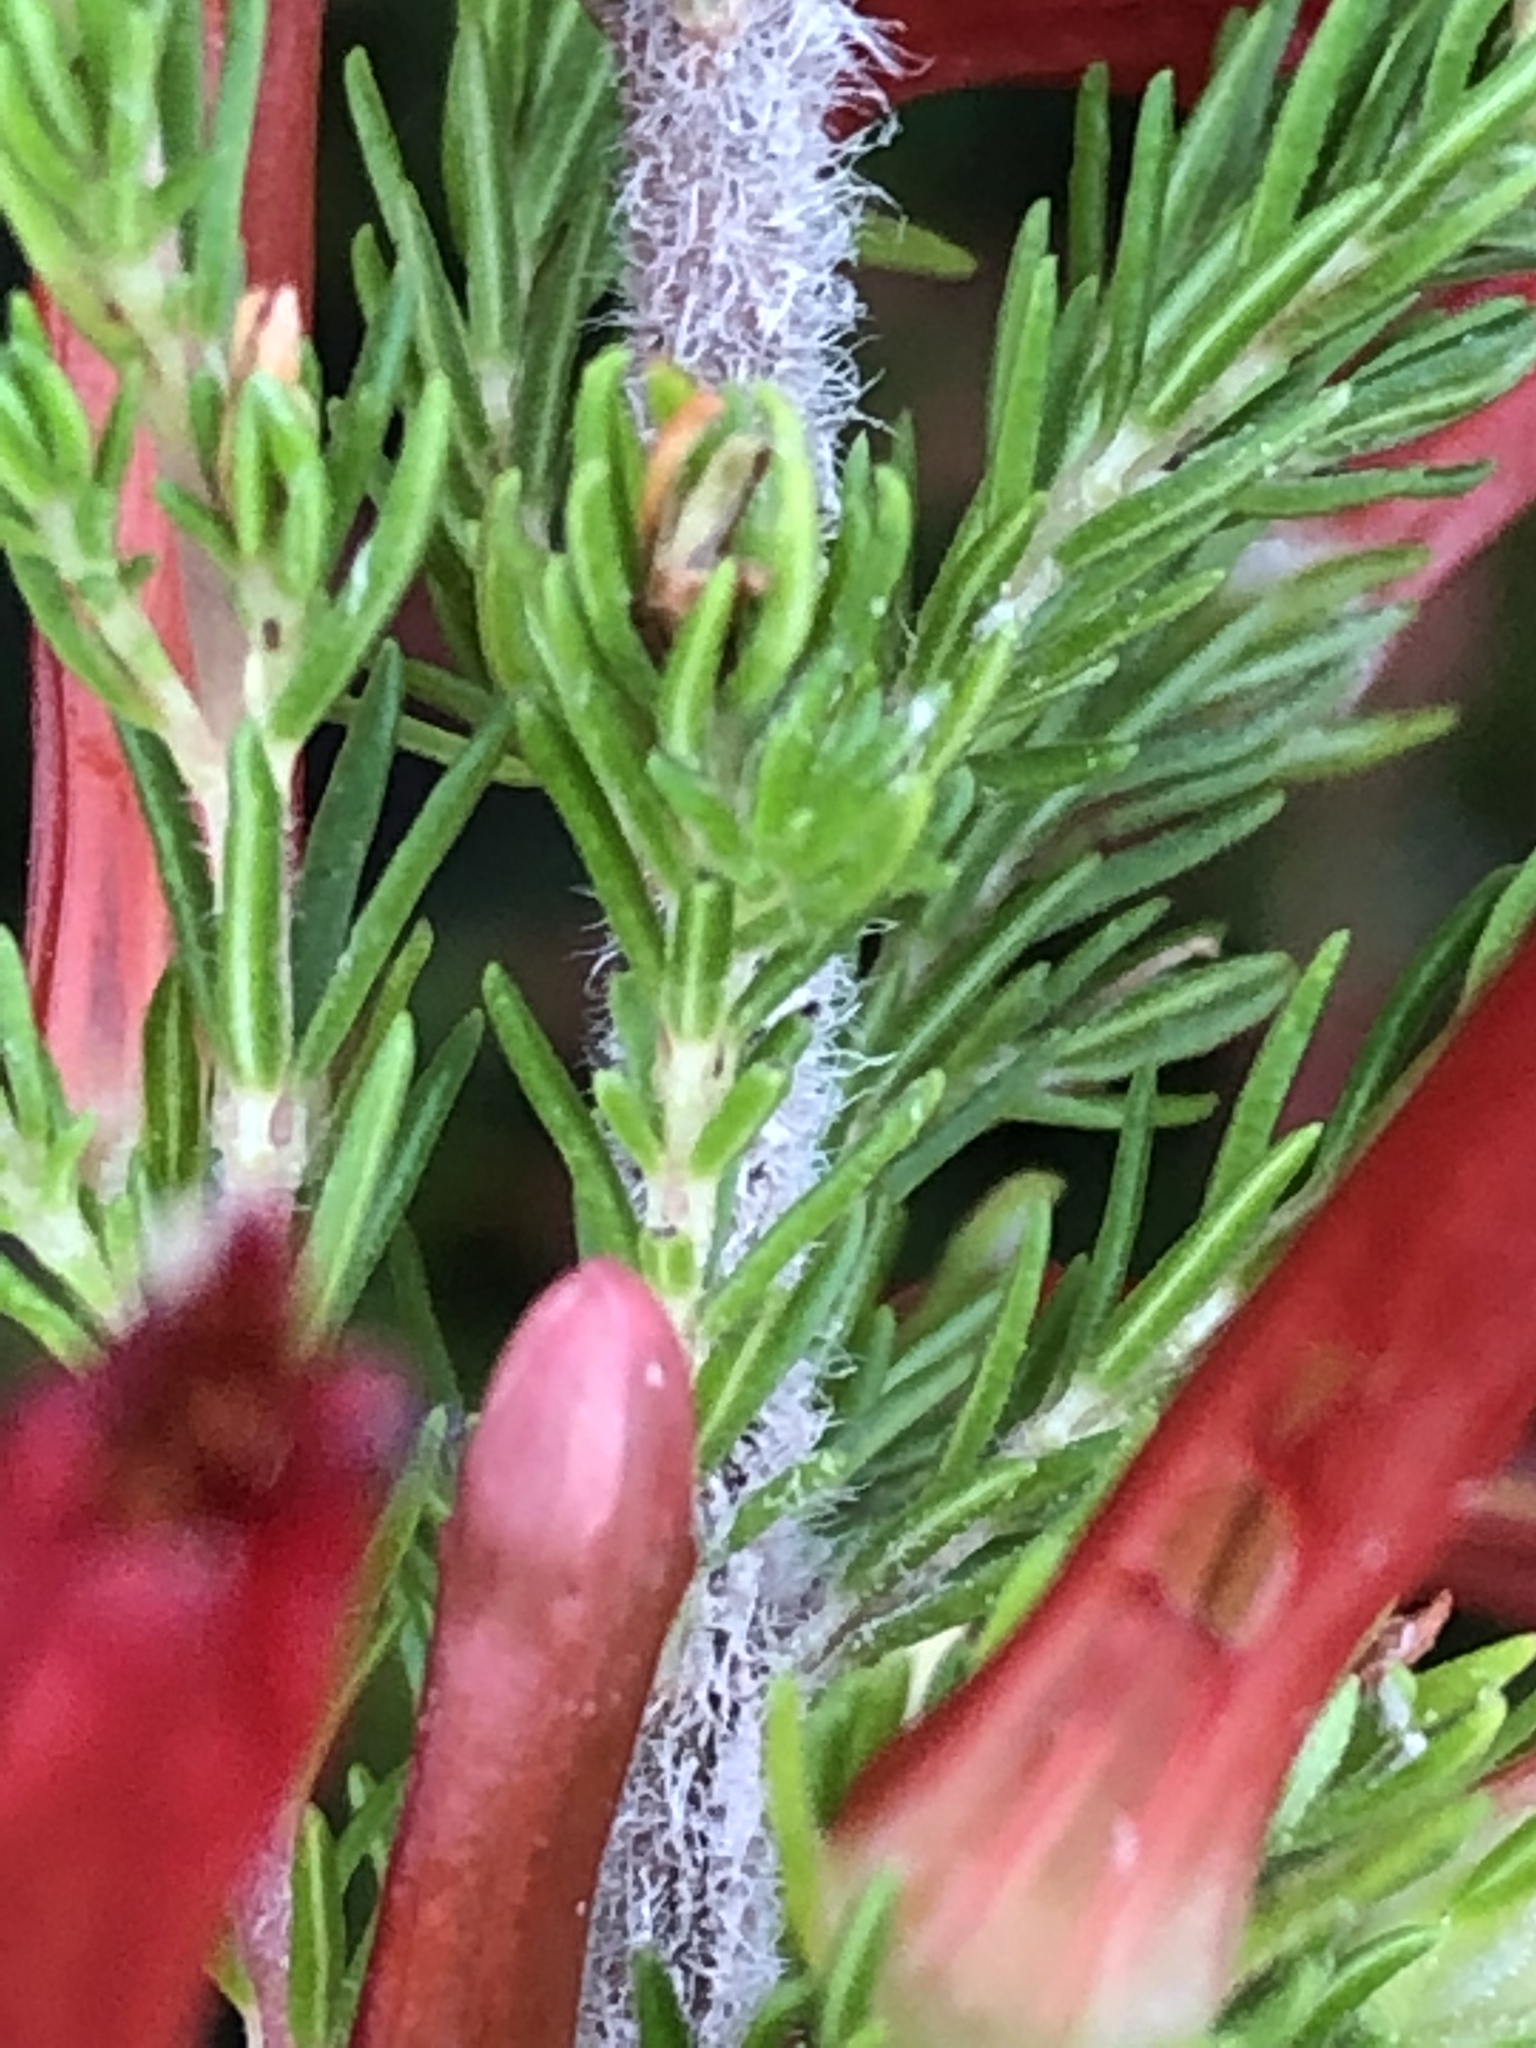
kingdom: Plantae
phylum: Tracheophyta
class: Magnoliopsida
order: Ericales
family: Ericaceae
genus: Erica
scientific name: Erica curviflora
